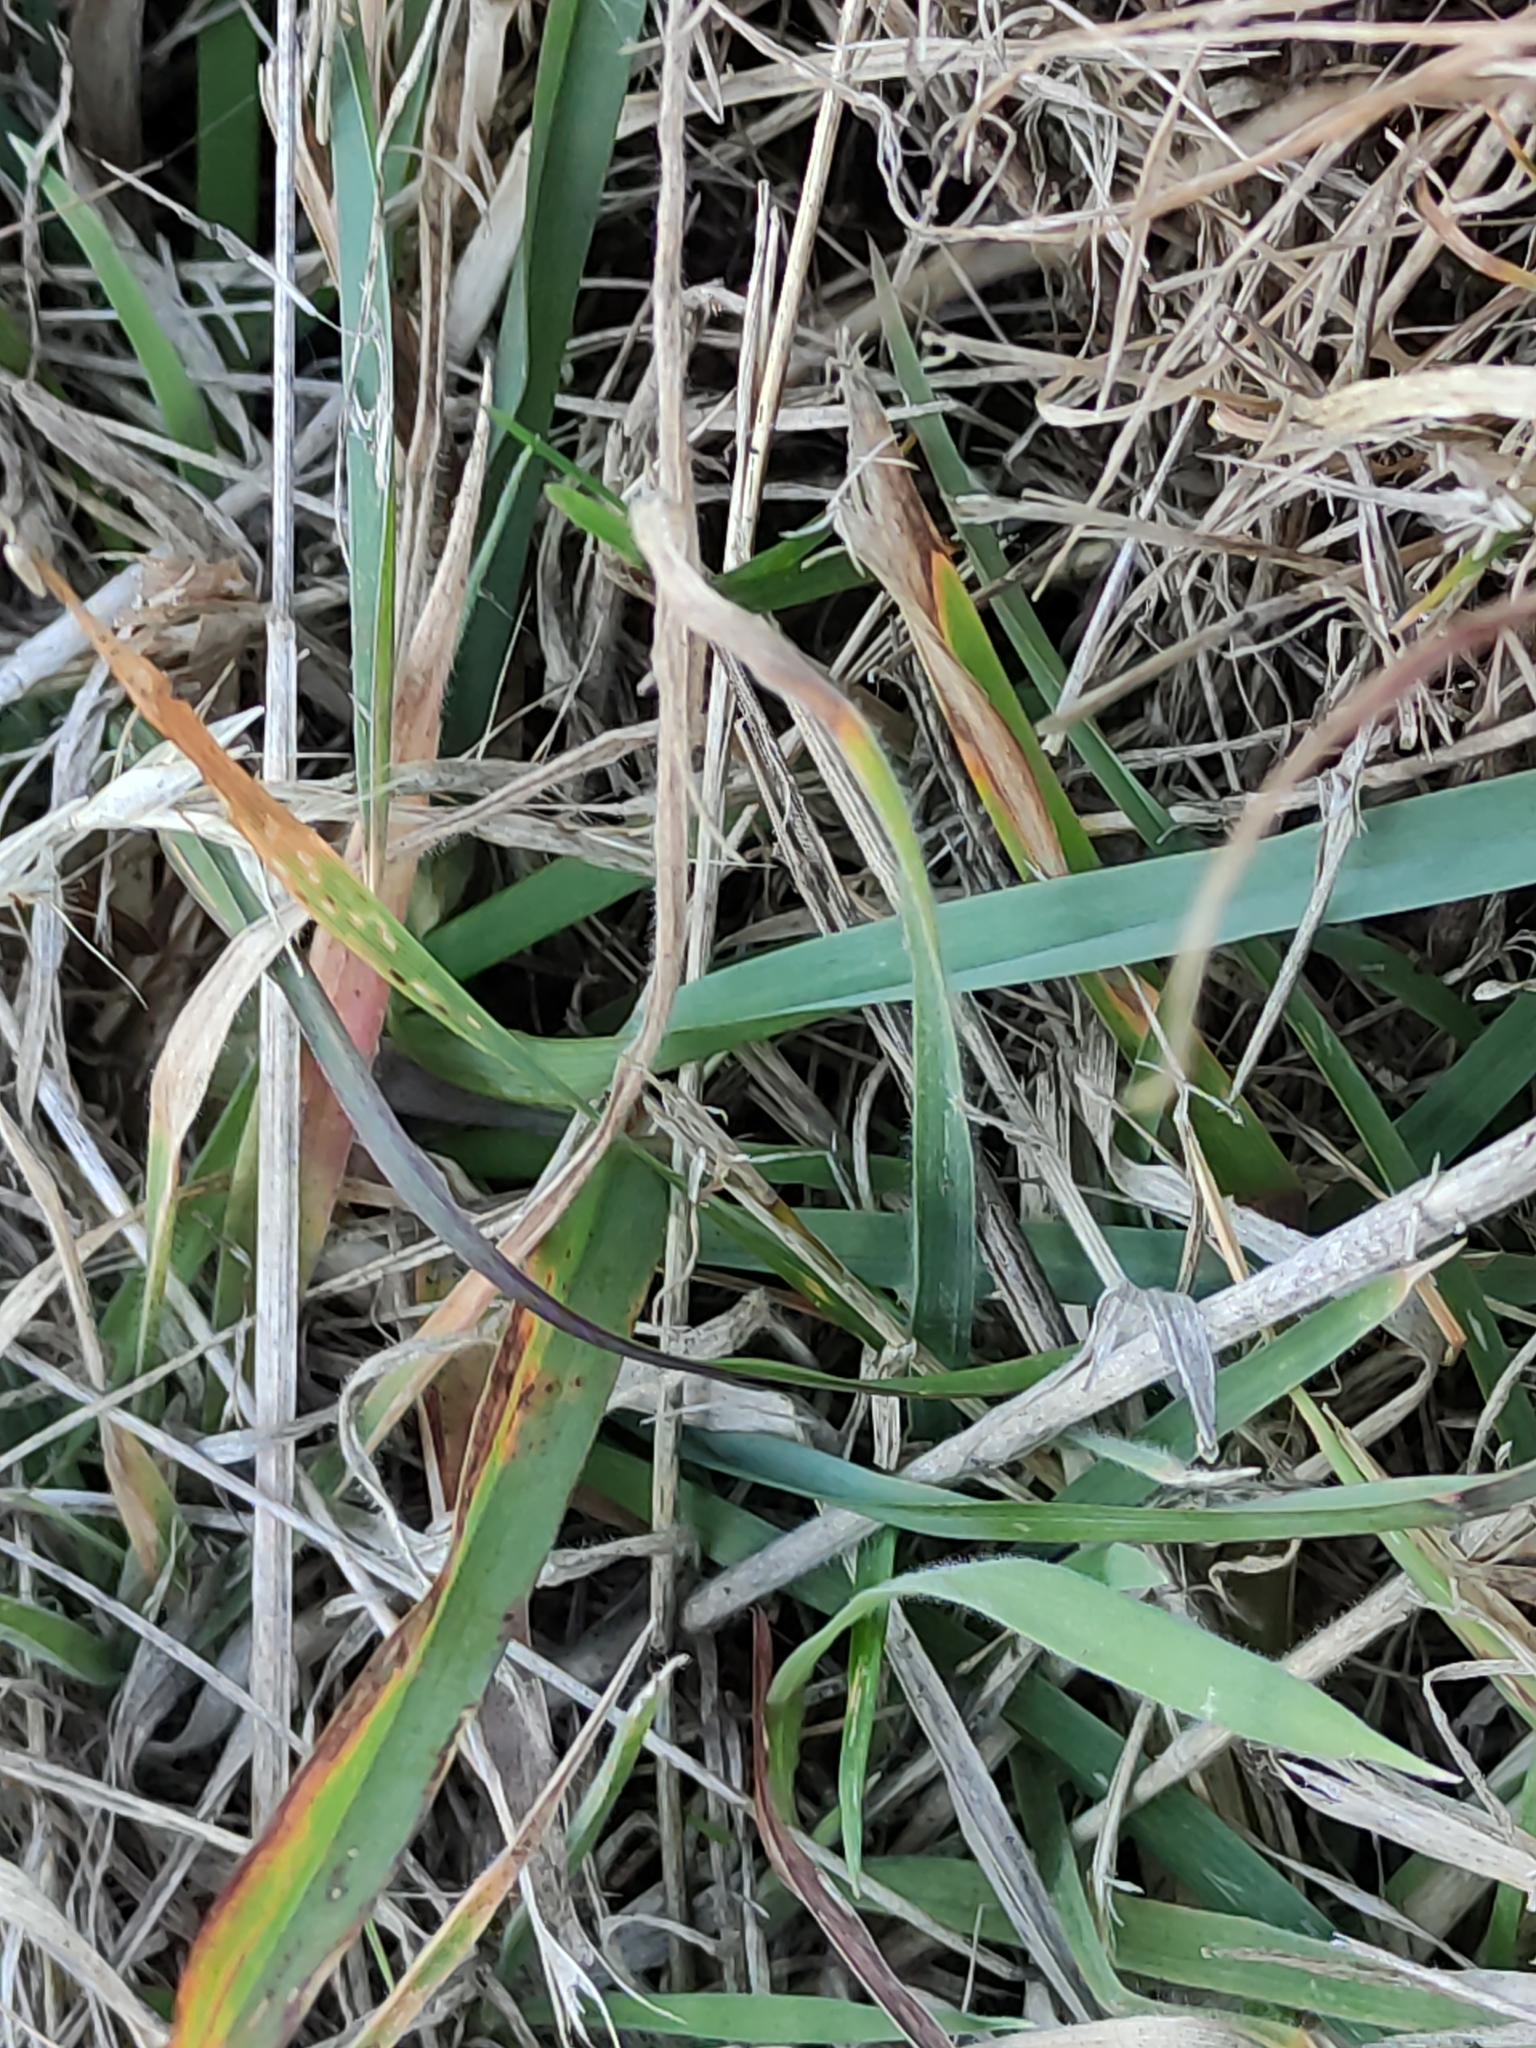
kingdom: Plantae
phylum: Tracheophyta
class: Liliopsida
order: Poales
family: Poaceae
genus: Dactylis
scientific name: Dactylis glomerata
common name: Orchardgrass
